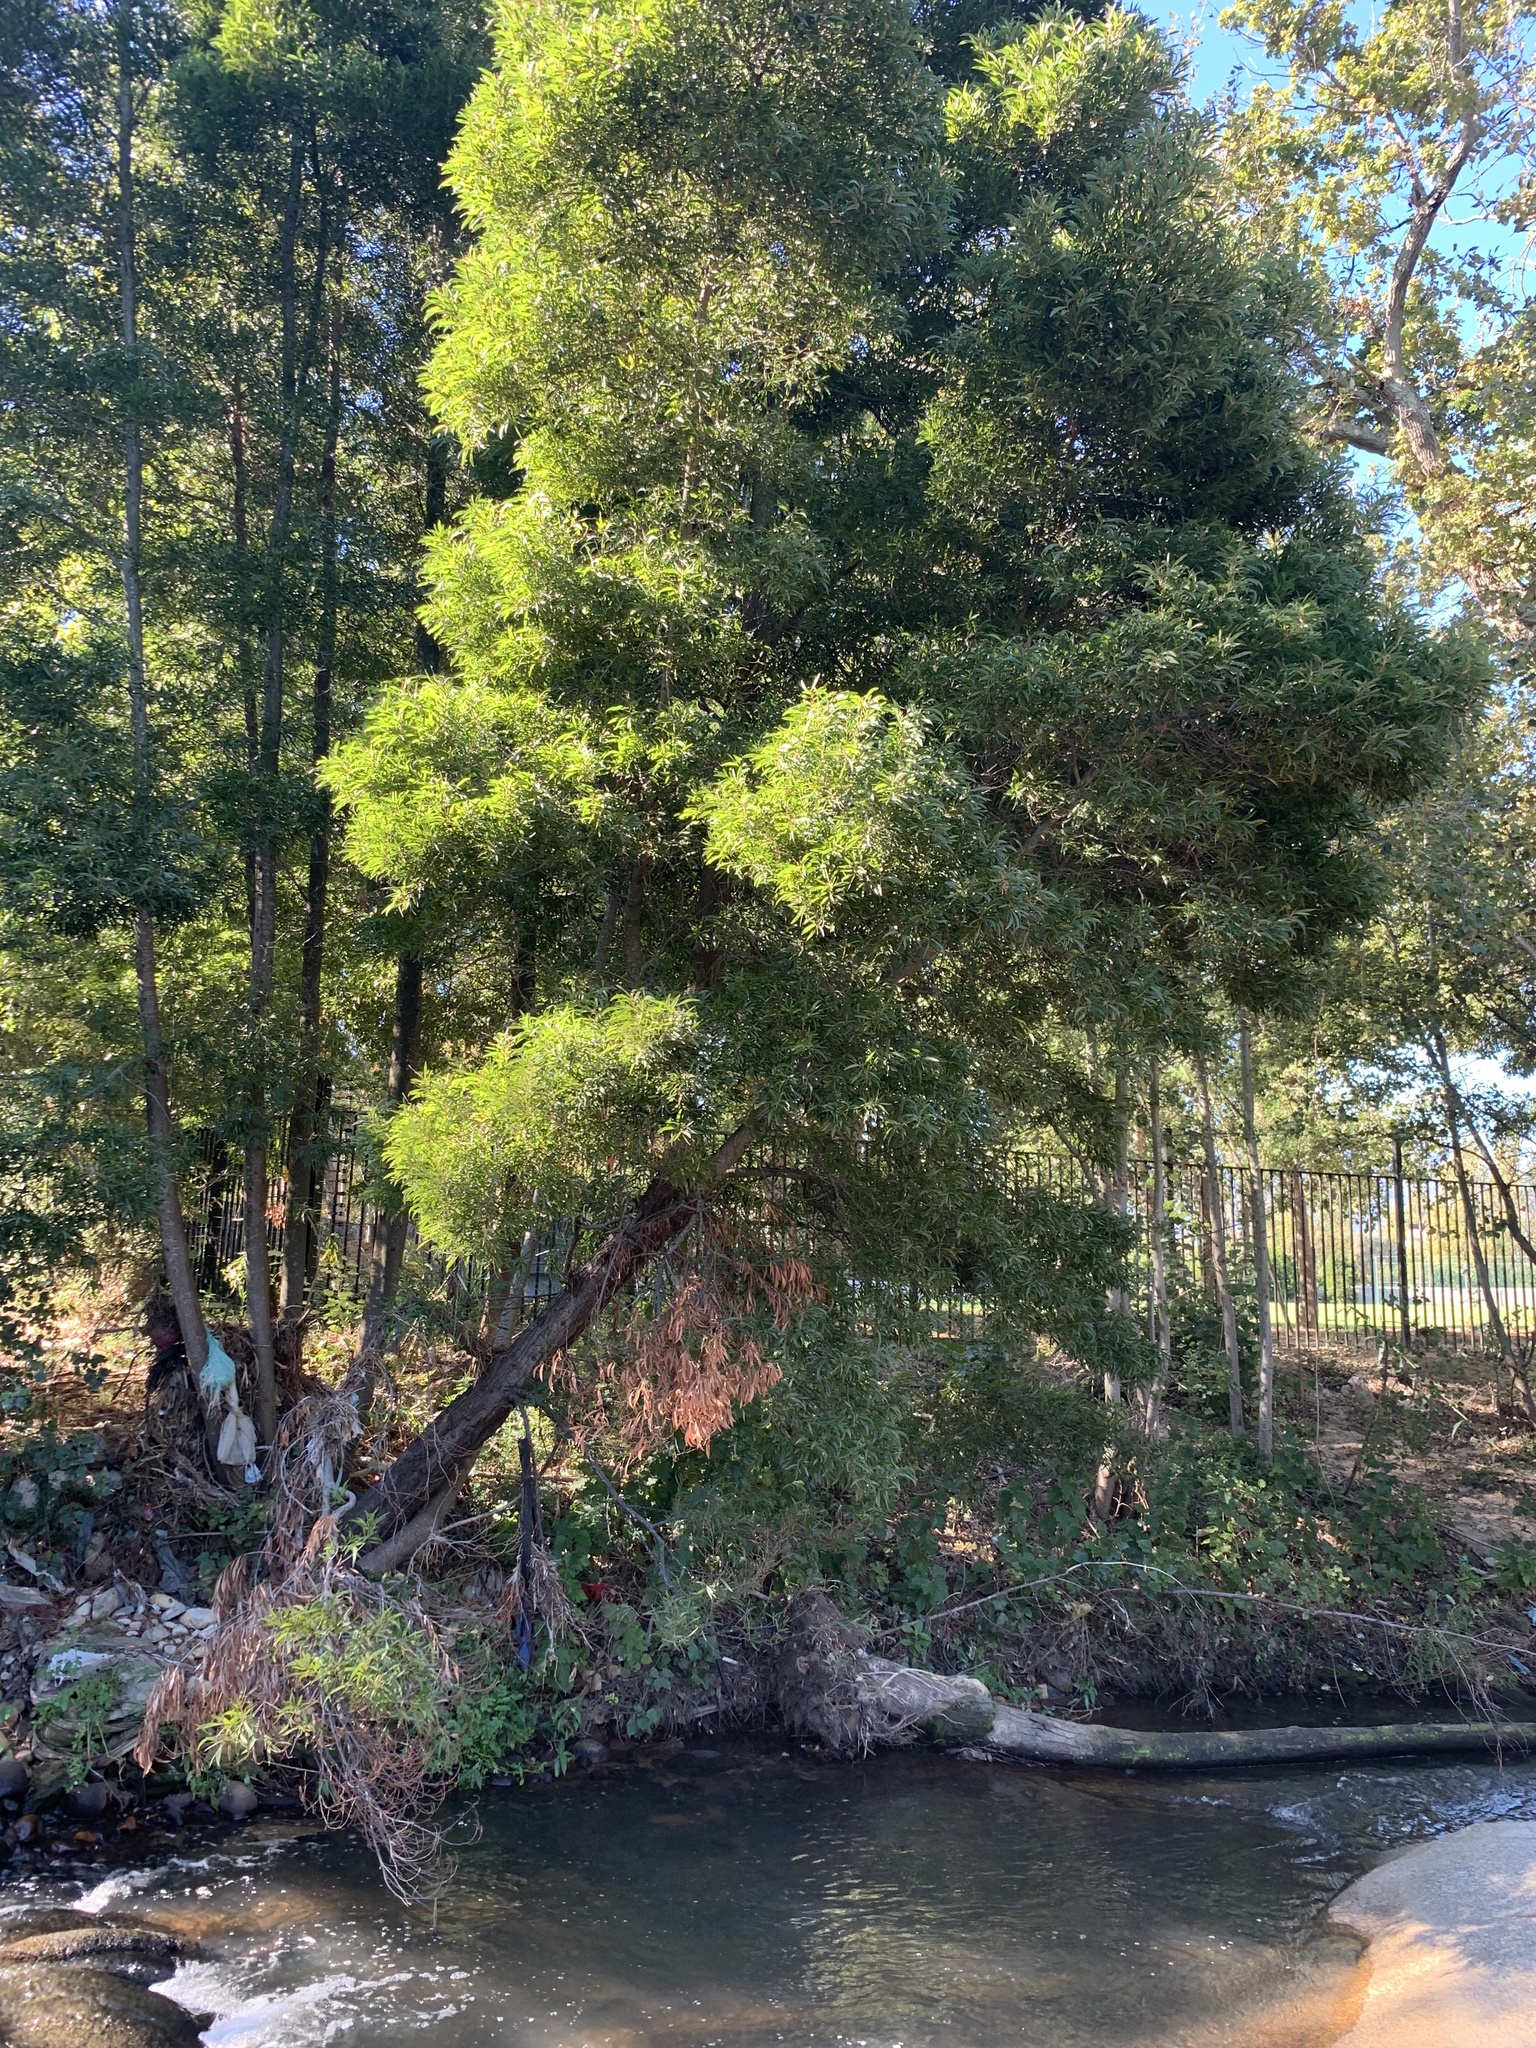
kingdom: Plantae
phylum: Tracheophyta
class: Magnoliopsida
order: Fabales
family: Fabaceae
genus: Acacia
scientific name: Acacia melanoxylon
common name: Blackwood
